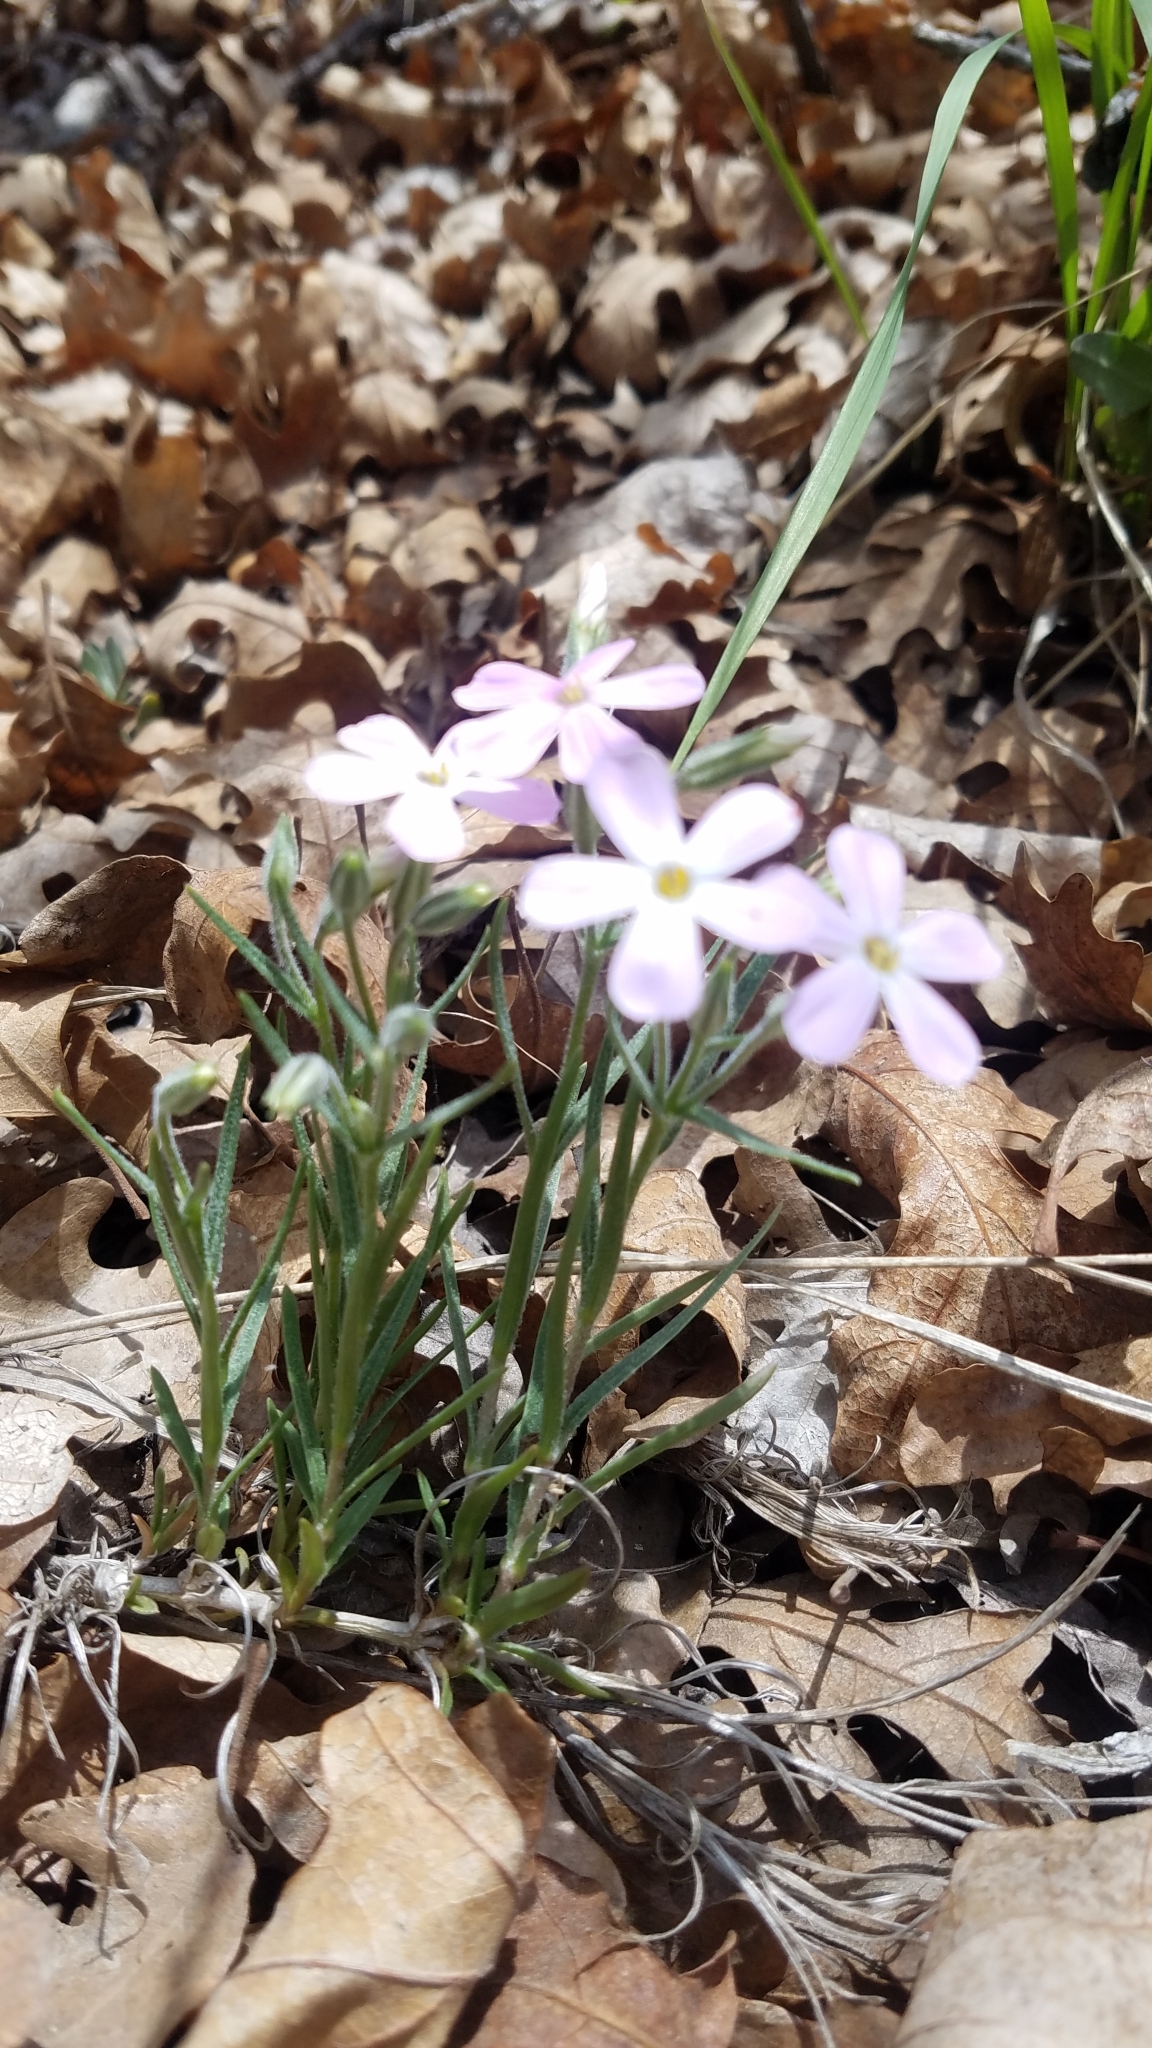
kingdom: Plantae
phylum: Tracheophyta
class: Magnoliopsida
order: Ericales
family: Polemoniaceae
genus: Phlox
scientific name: Phlox longifolia
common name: Longleaf phlox
